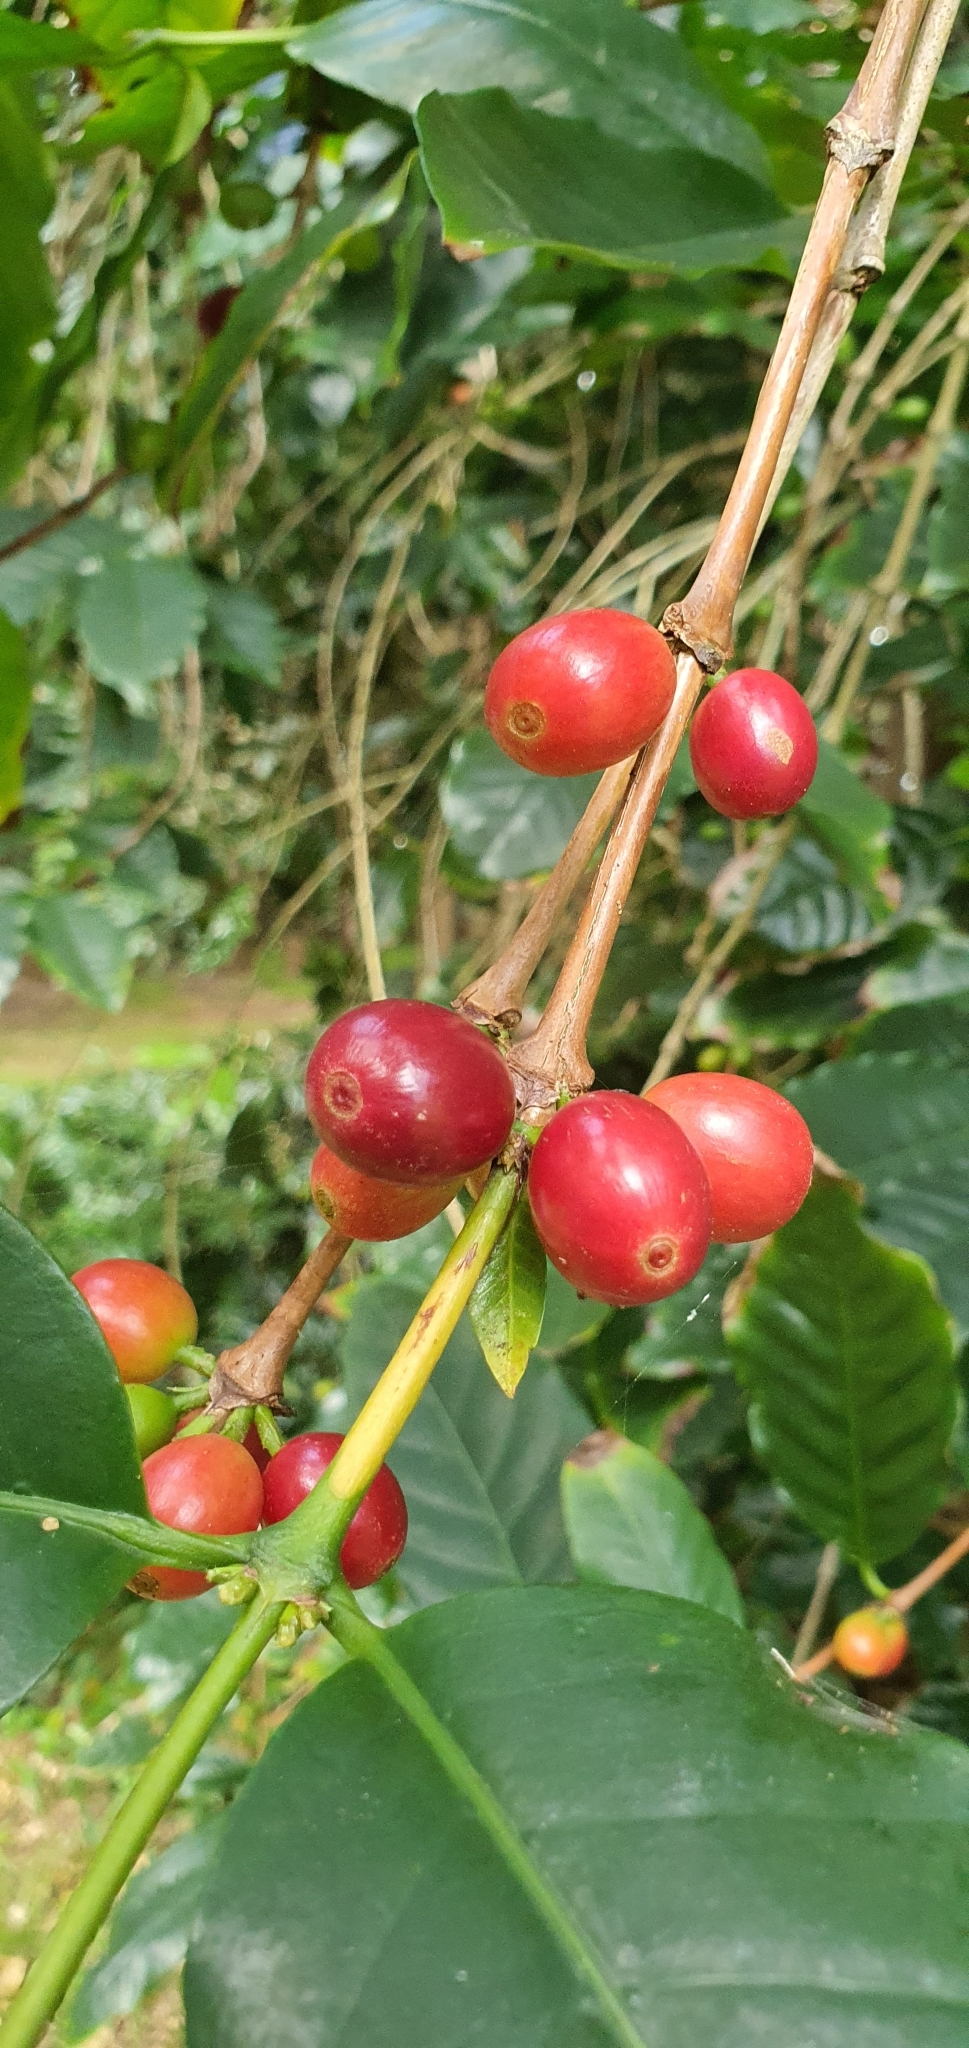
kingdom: Plantae
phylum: Tracheophyta
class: Magnoliopsida
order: Gentianales
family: Rubiaceae
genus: Coffea
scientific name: Coffea arabica
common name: Coffee
